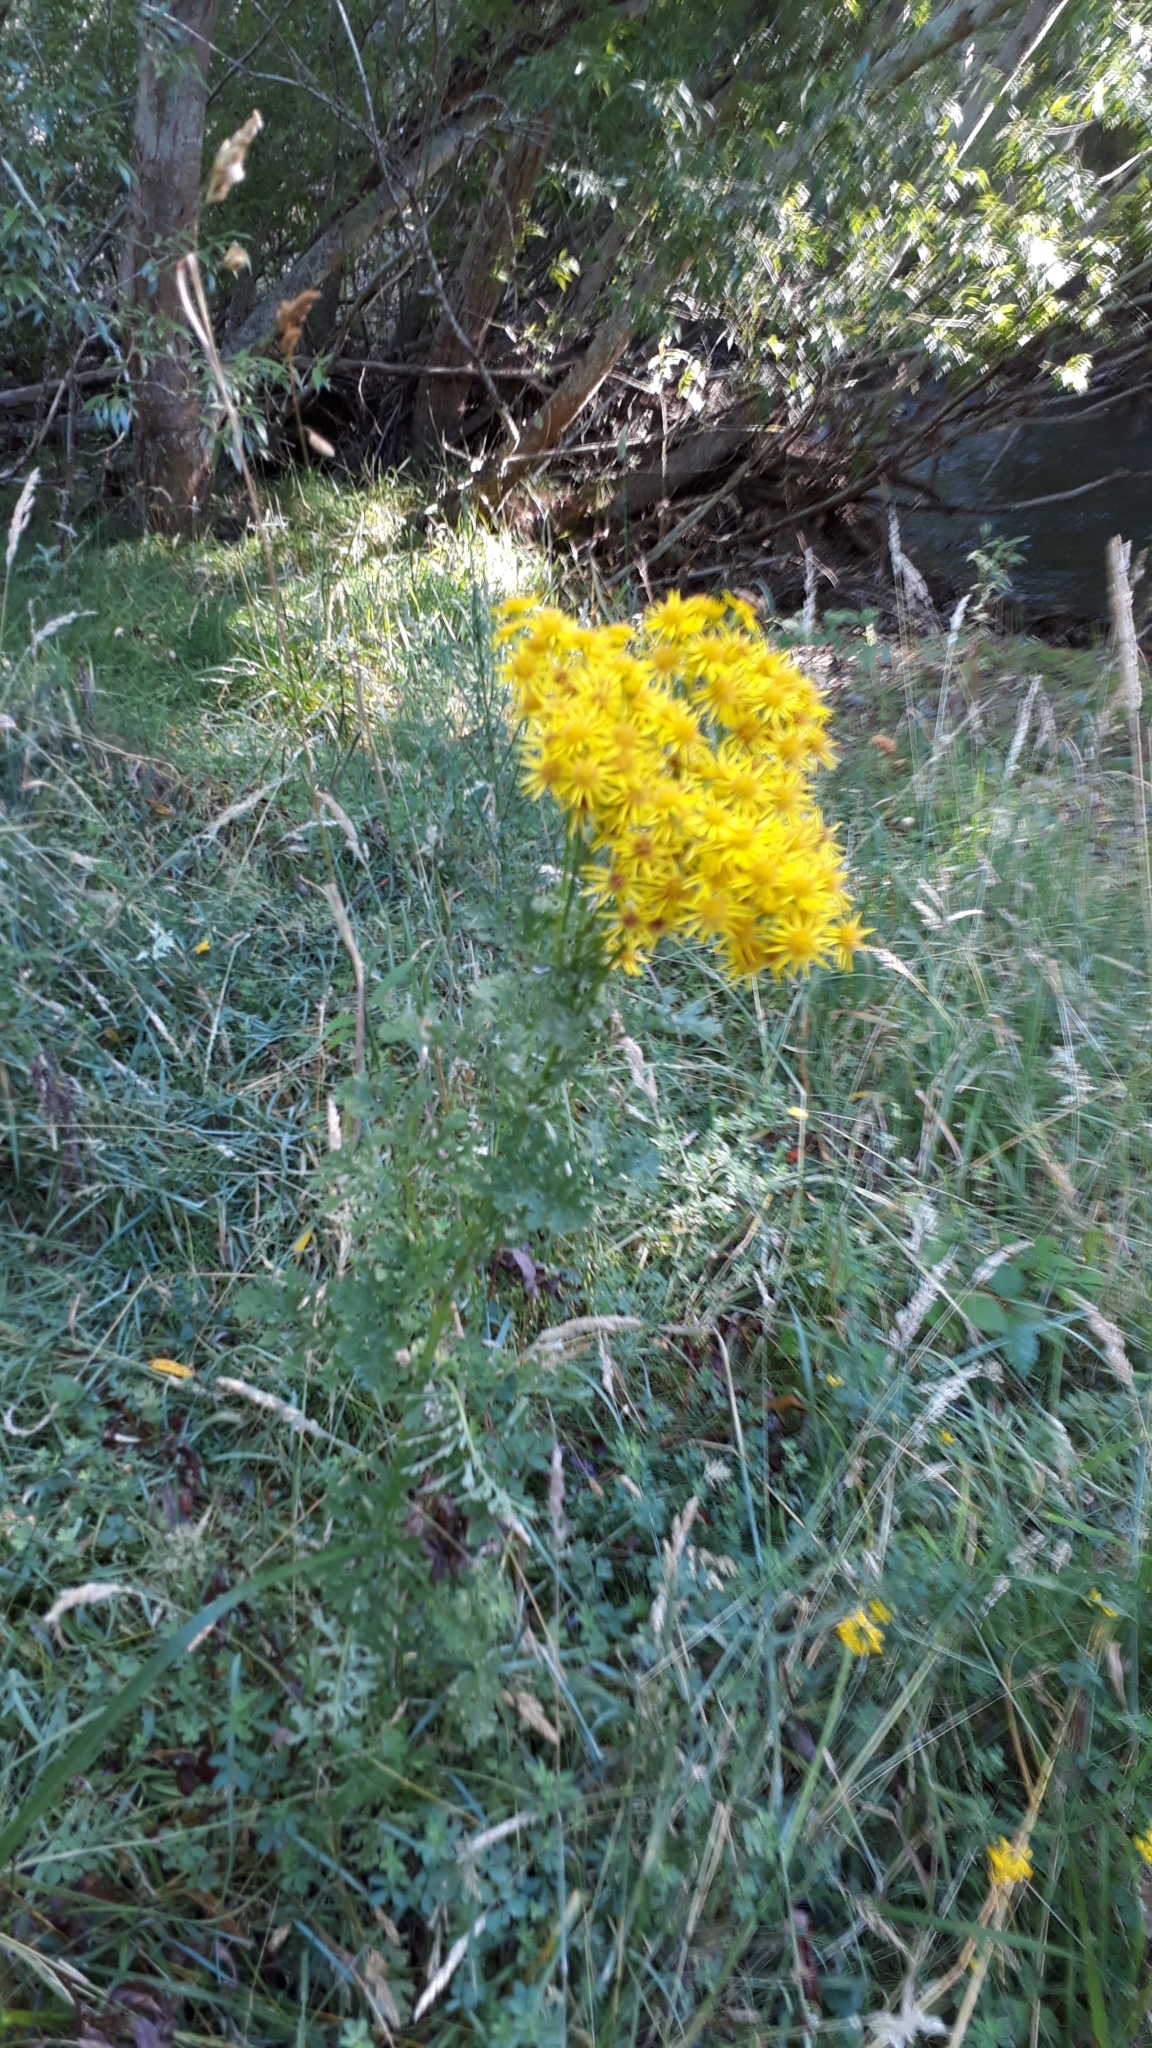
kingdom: Plantae
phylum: Tracheophyta
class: Magnoliopsida
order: Asterales
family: Asteraceae
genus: Jacobaea
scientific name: Jacobaea vulgaris
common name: Stinking willie
